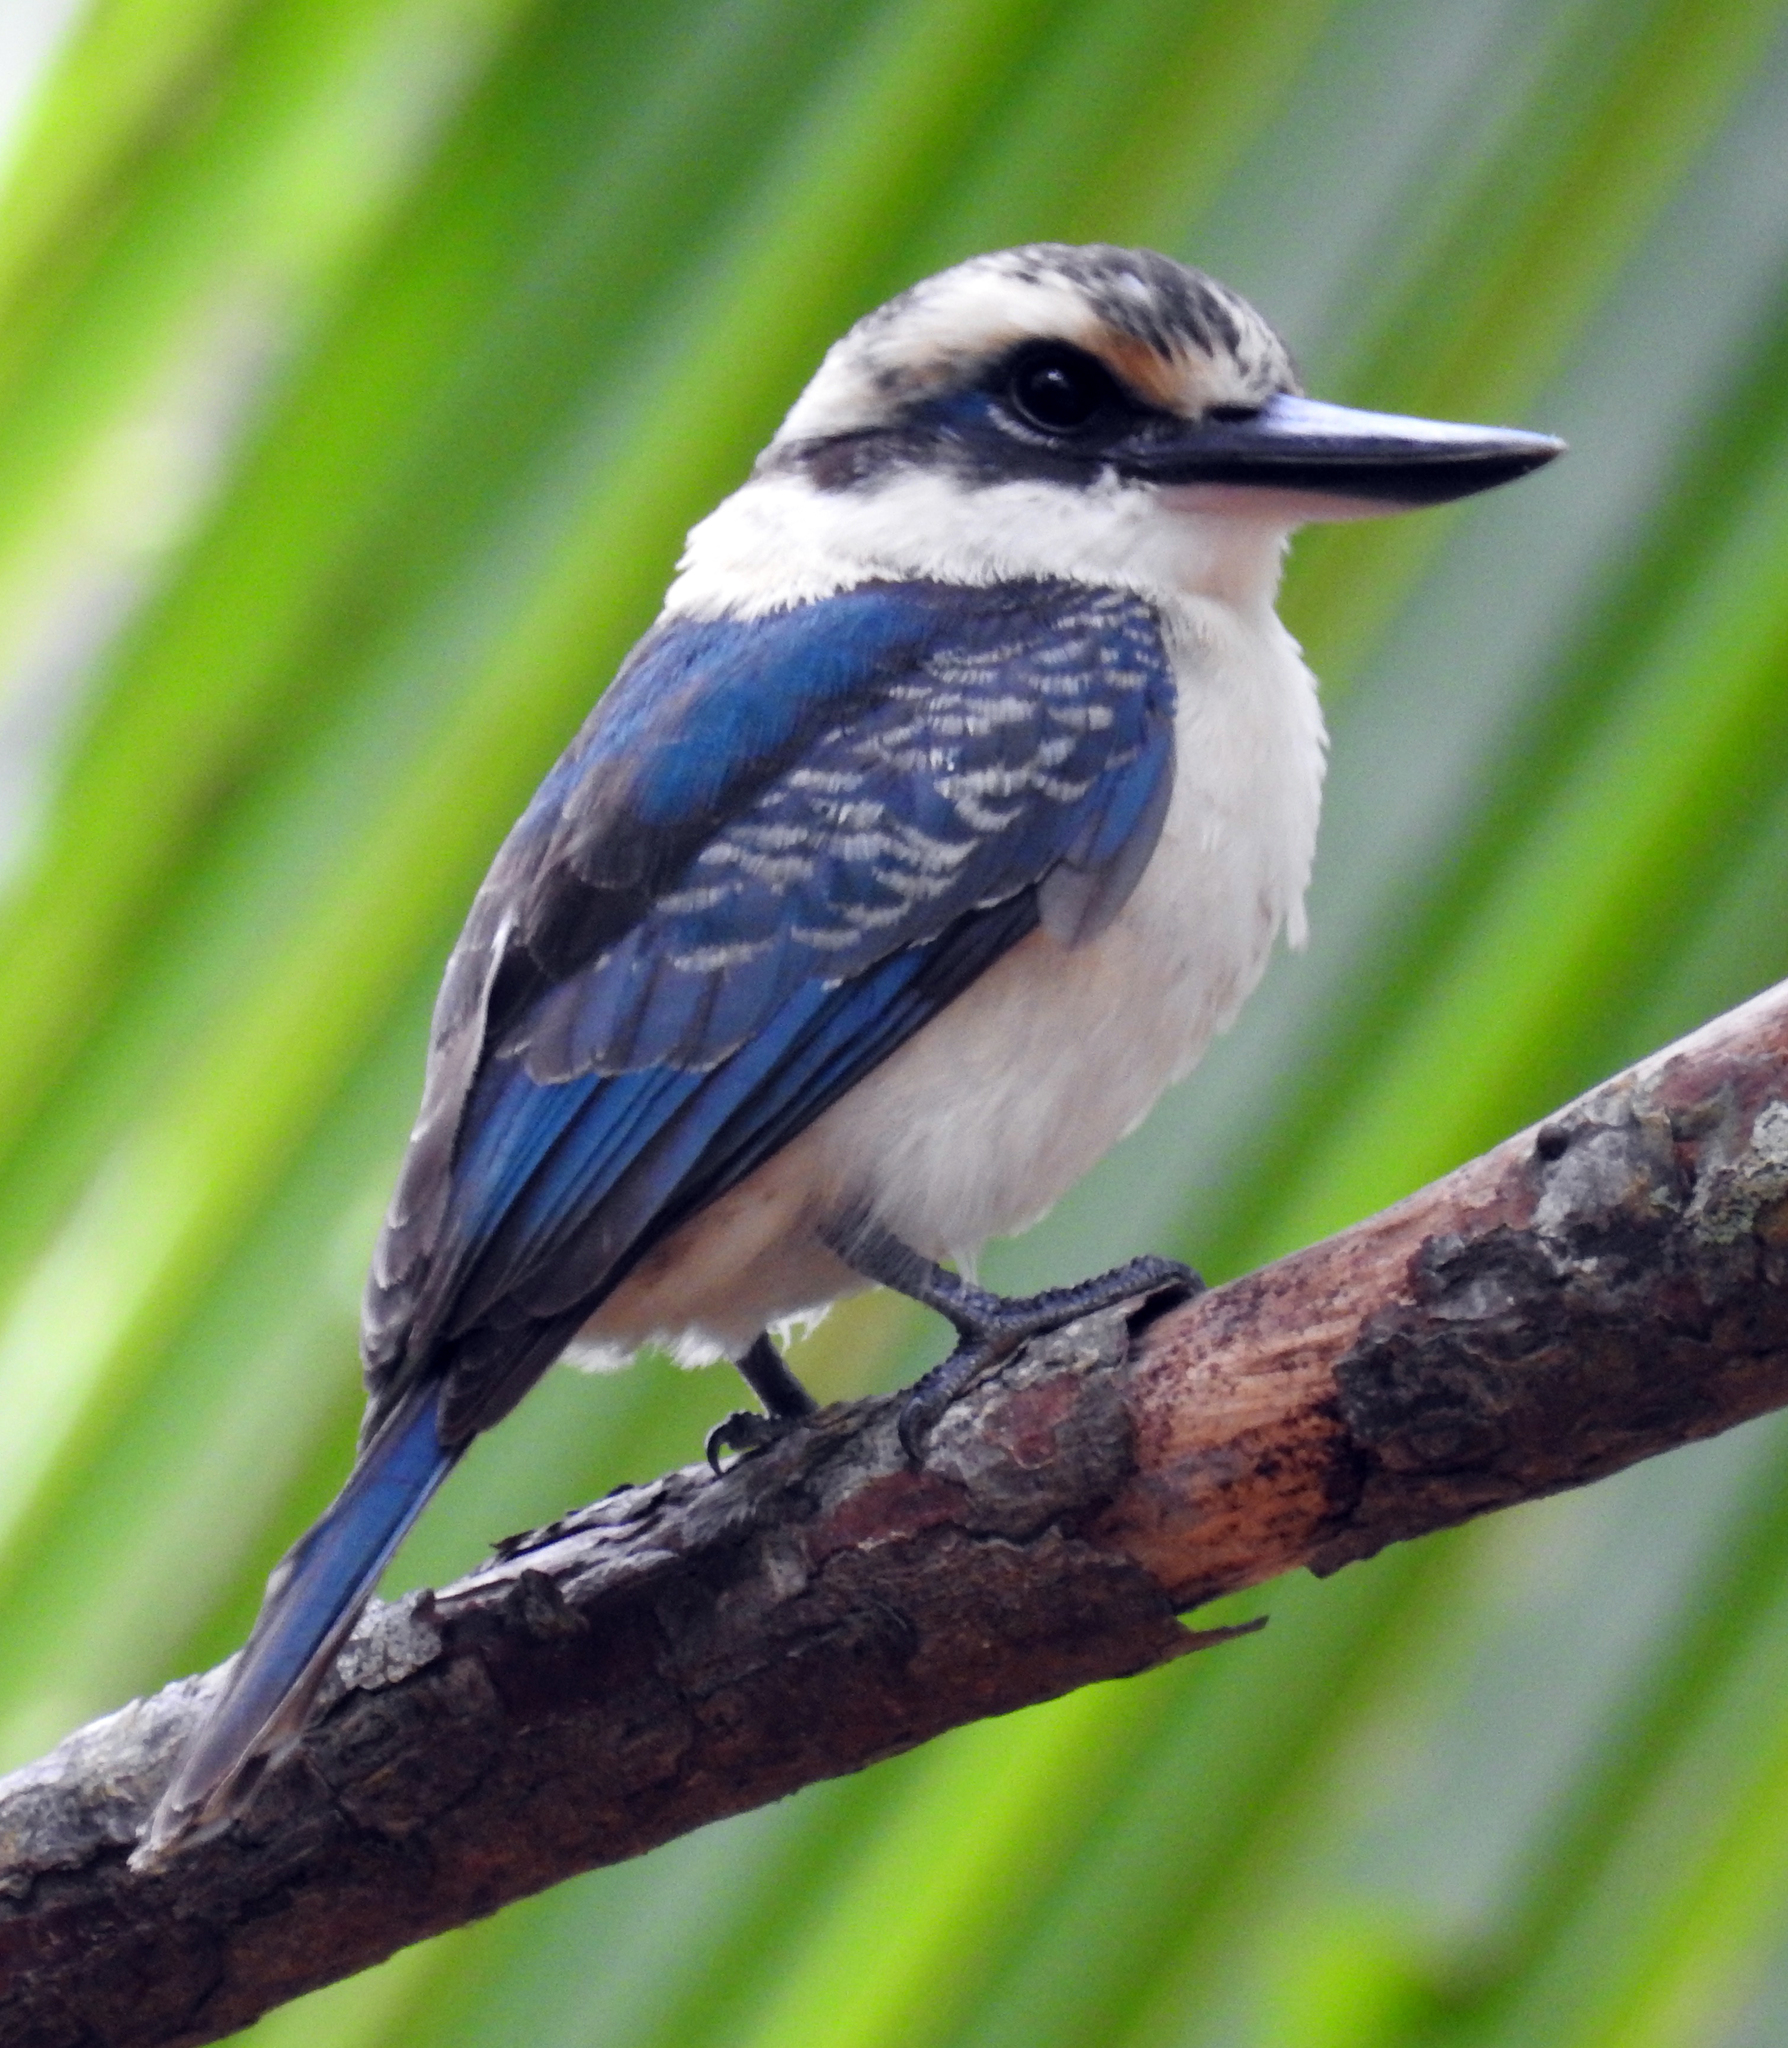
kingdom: Animalia
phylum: Chordata
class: Aves
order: Coraciiformes
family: Alcedinidae
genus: Todiramphus
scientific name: Todiramphus tutus
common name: Chattering kingfisher
